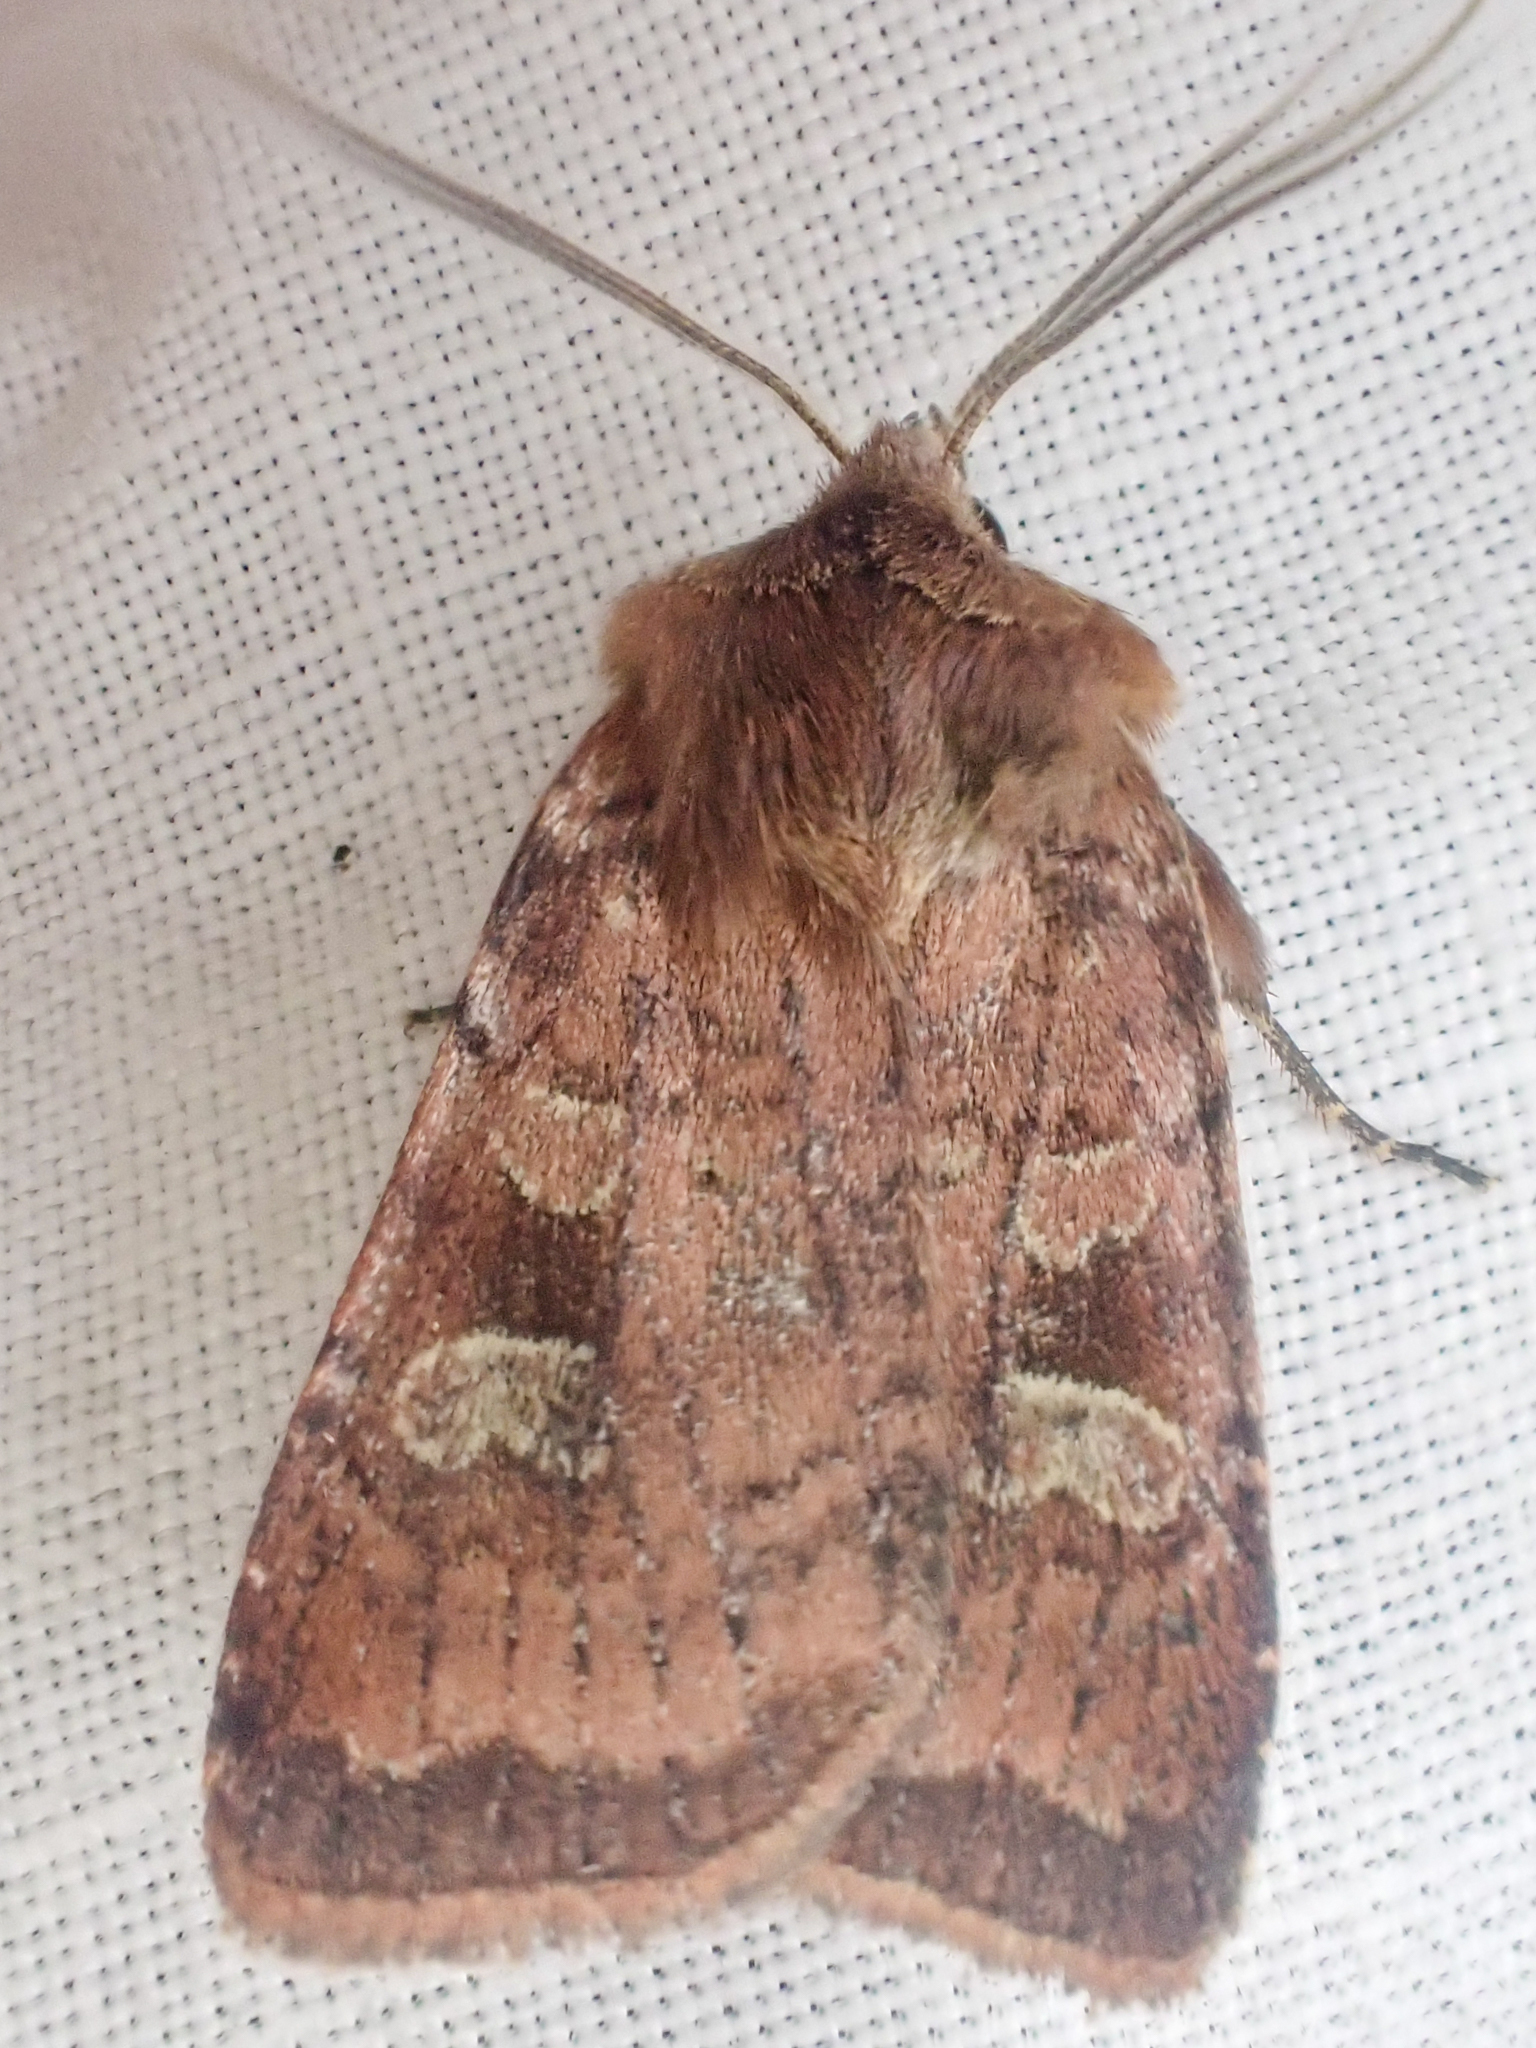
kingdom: Animalia
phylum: Arthropoda
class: Insecta
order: Lepidoptera
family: Noctuidae
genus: Diarsia
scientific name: Diarsia rosaria
